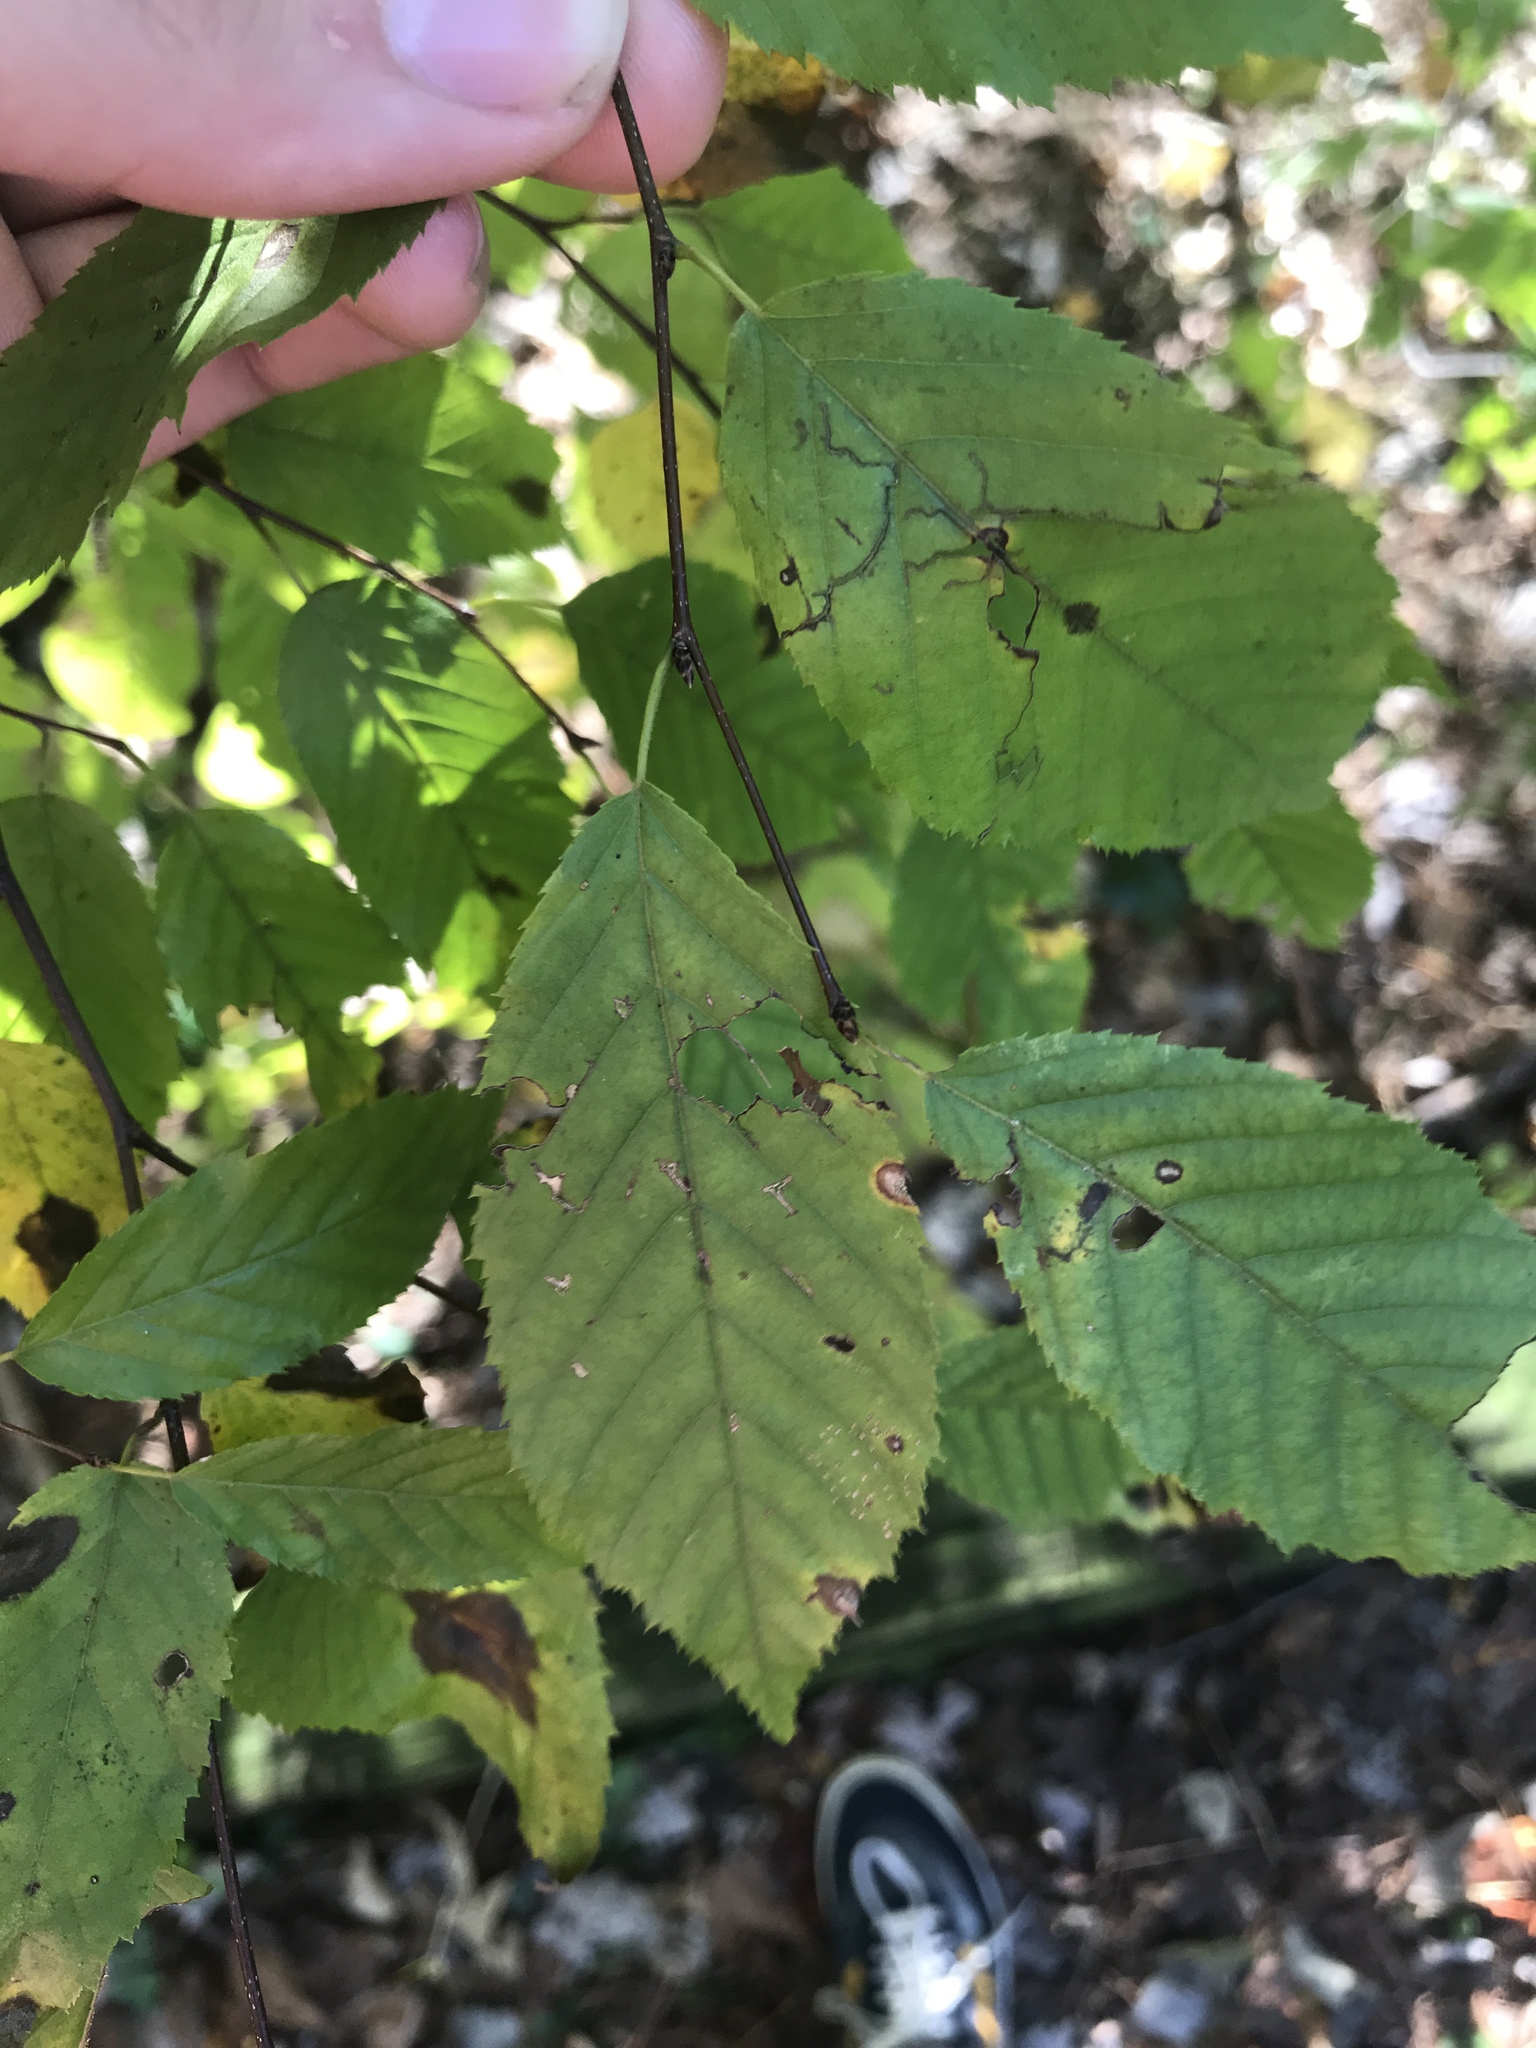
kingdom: Plantae
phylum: Tracheophyta
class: Magnoliopsida
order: Fagales
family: Betulaceae
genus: Carpinus
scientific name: Carpinus caroliniana
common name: American hornbeam
